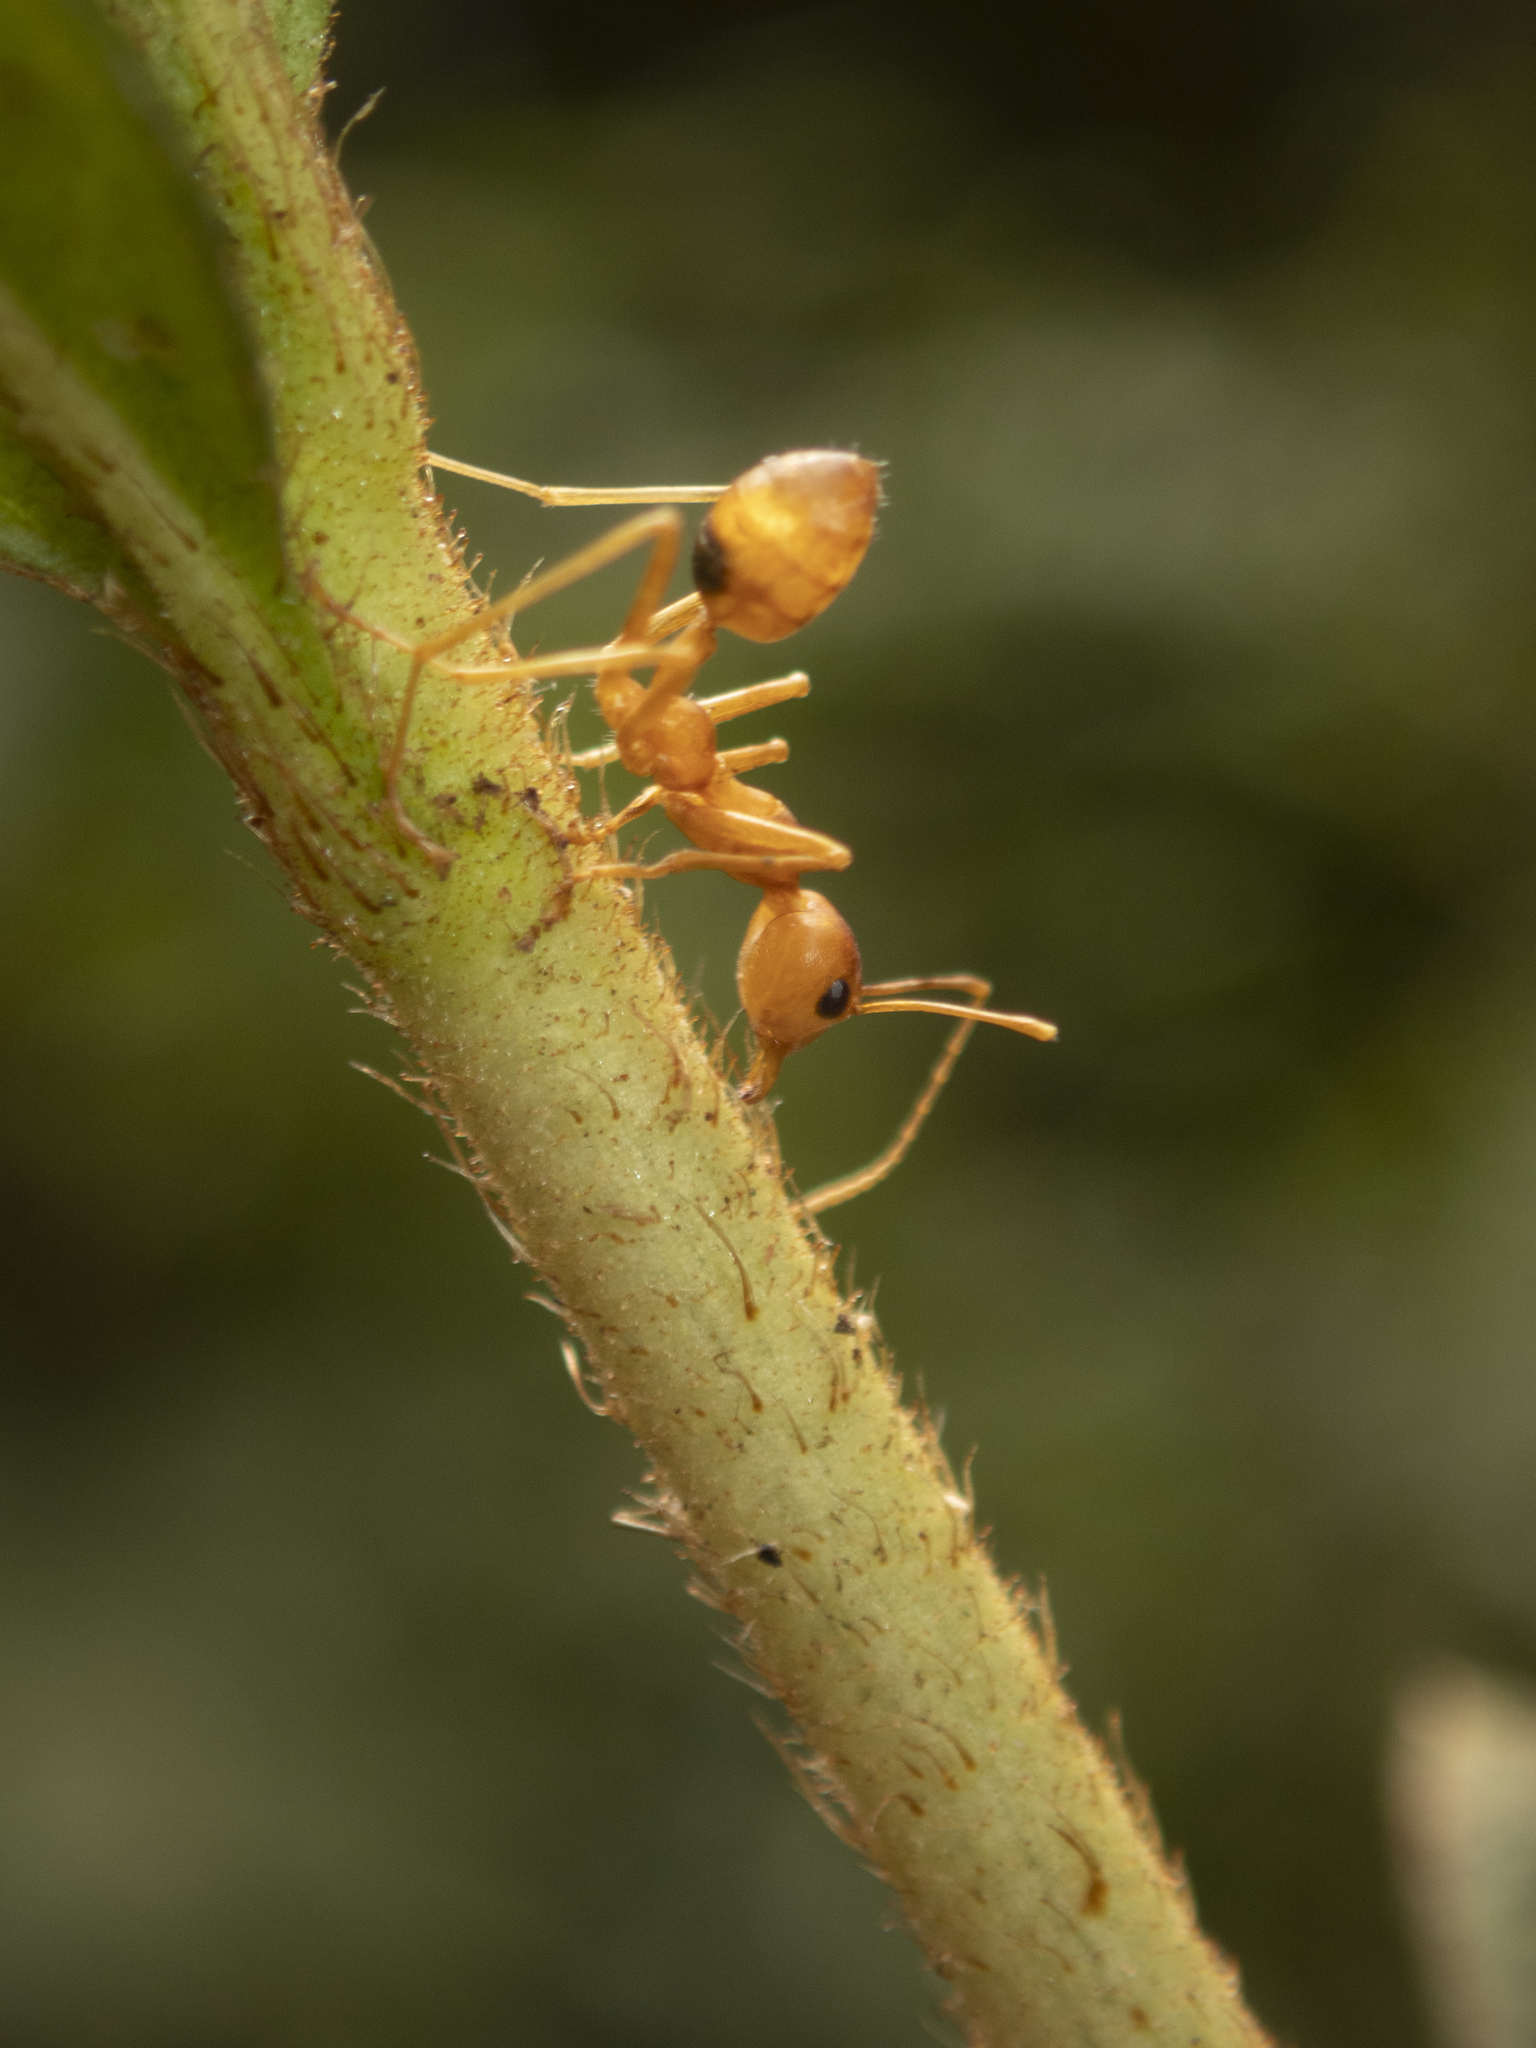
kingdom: Animalia
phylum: Arthropoda
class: Insecta
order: Hymenoptera
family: Formicidae
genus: Oecophylla
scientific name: Oecophylla smaragdina
